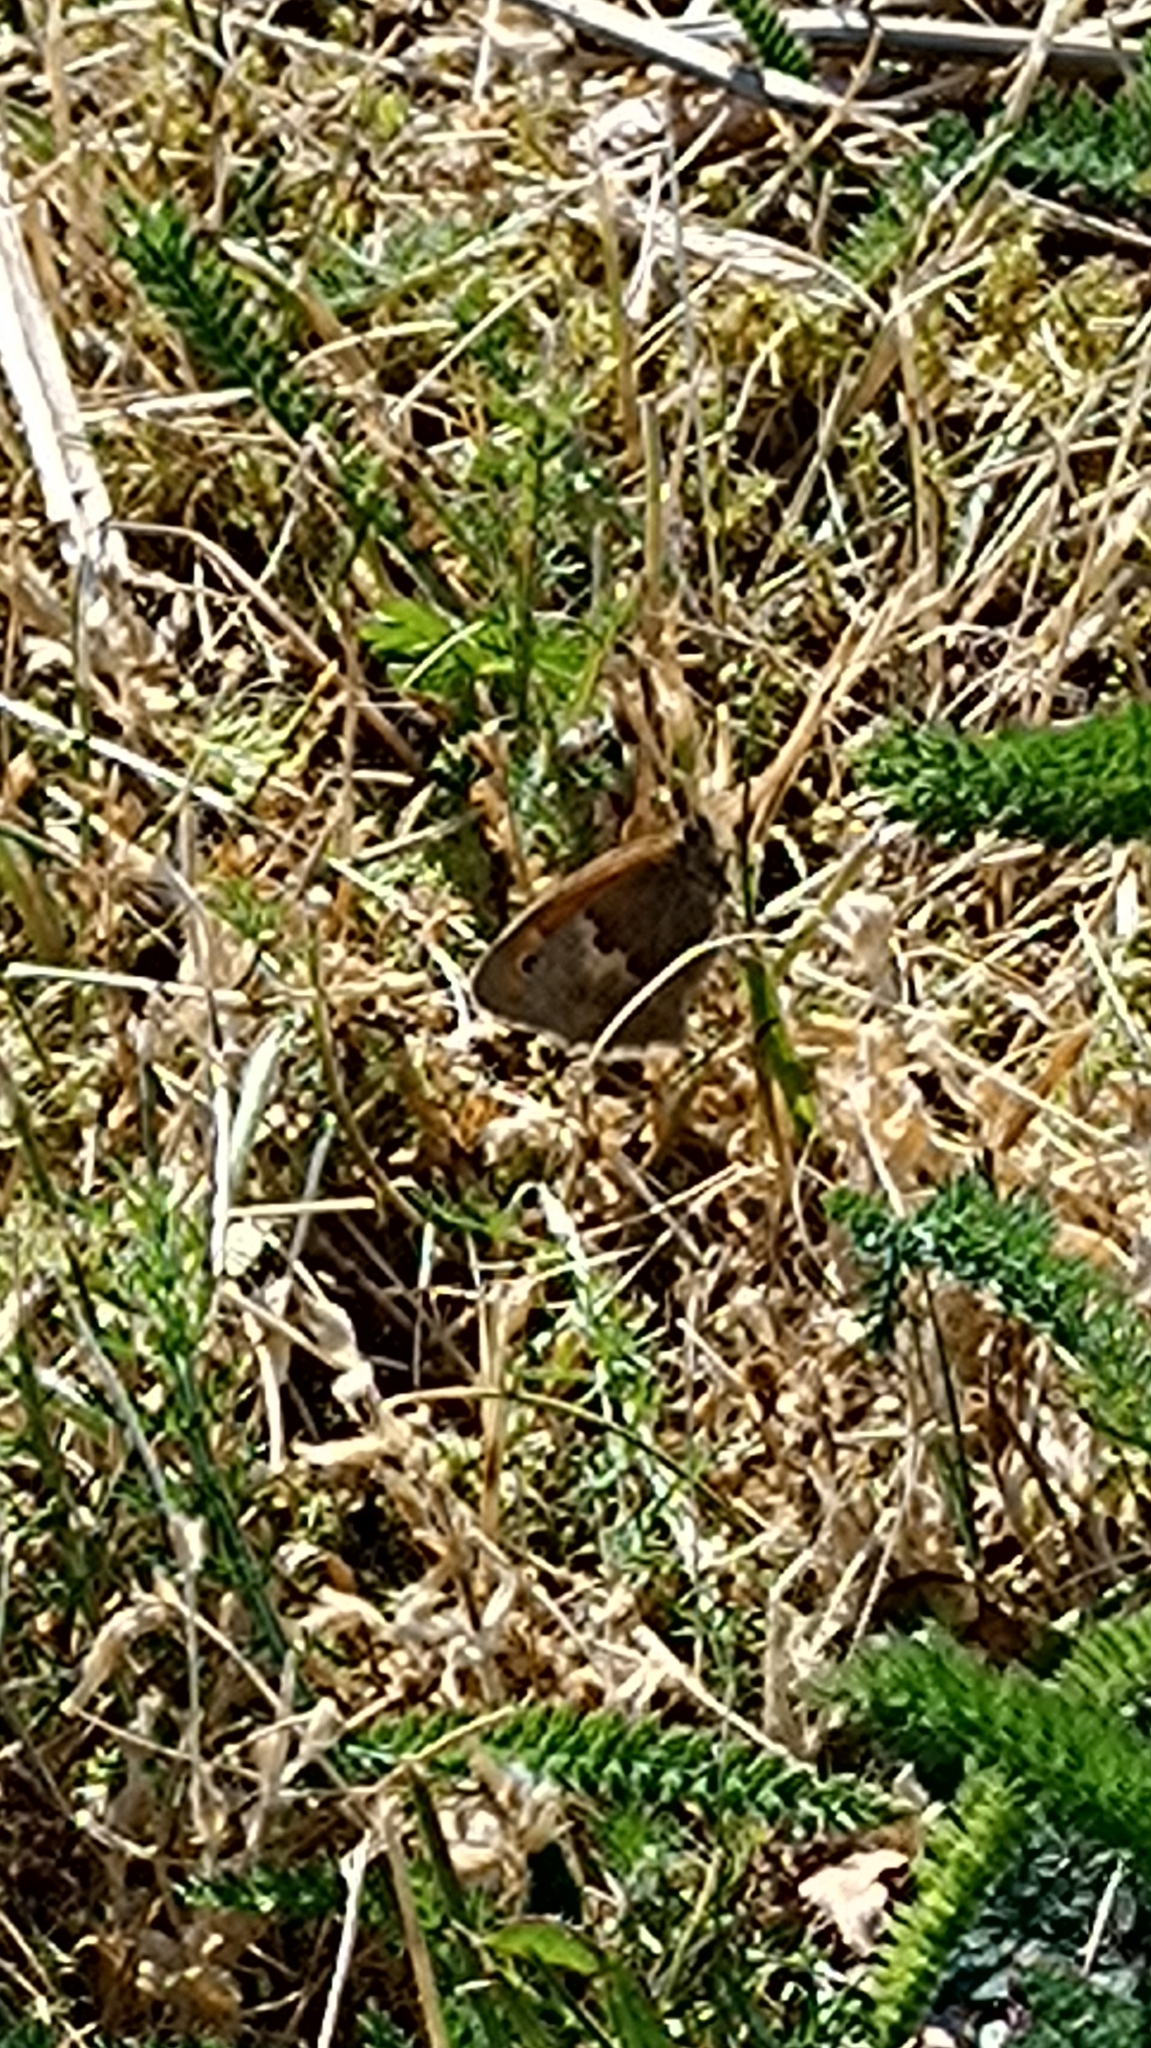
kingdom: Animalia
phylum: Arthropoda
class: Insecta
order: Lepidoptera
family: Nymphalidae
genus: Coenonympha
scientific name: Coenonympha pamphilus
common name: Small heath
